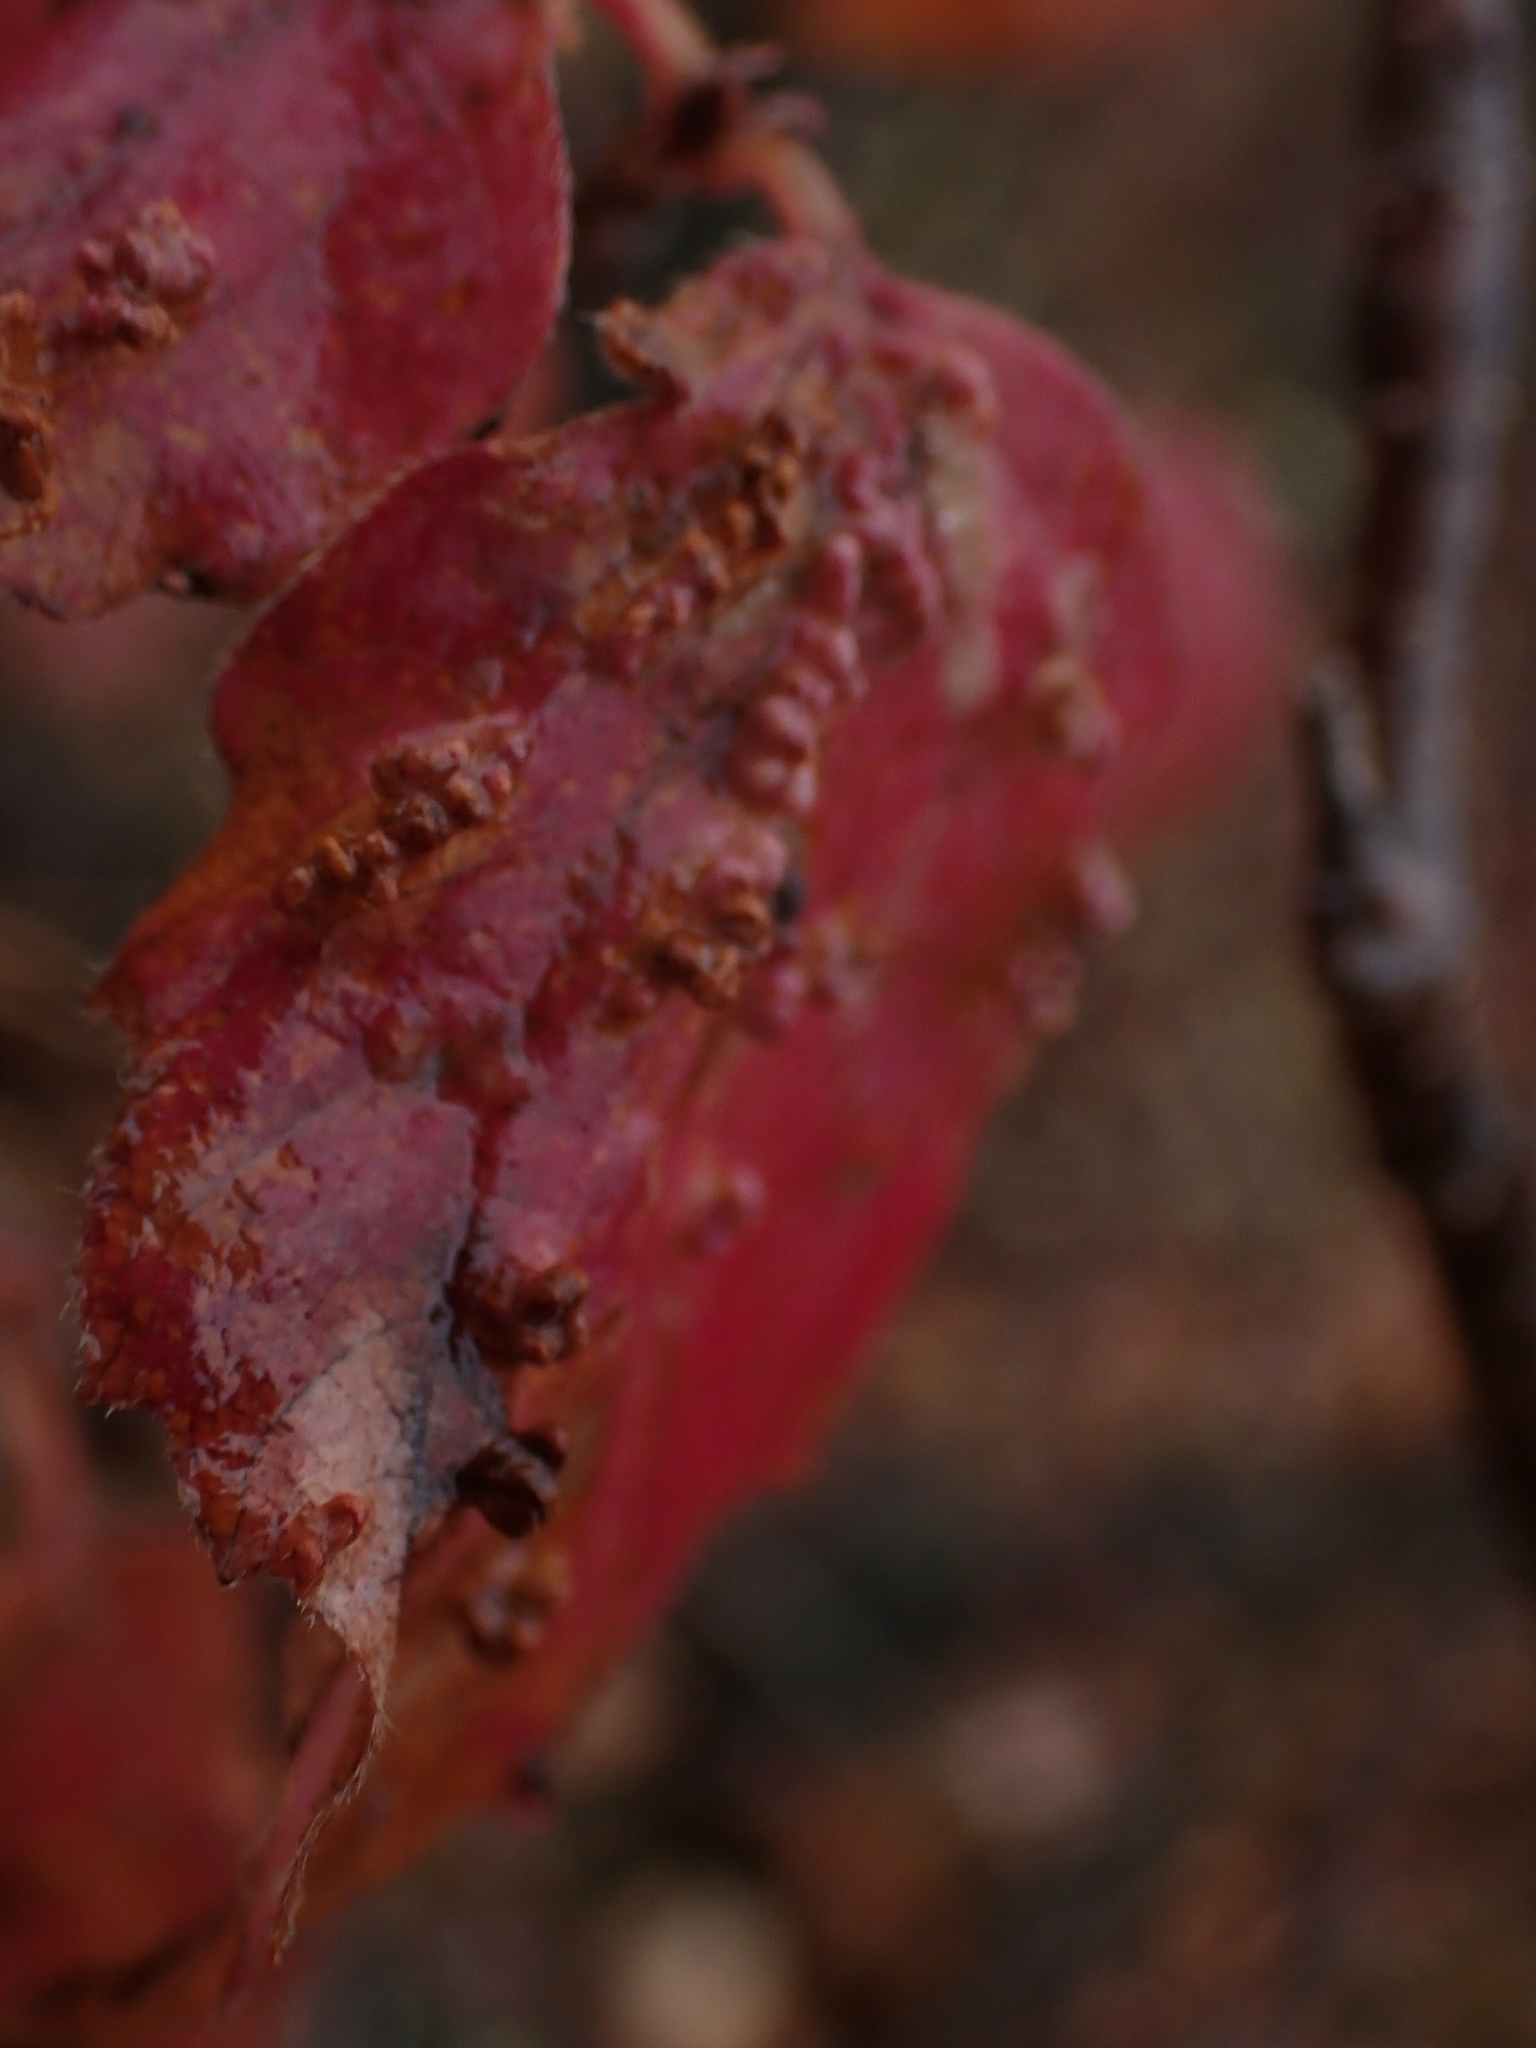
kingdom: Animalia
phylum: Arthropoda
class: Arachnida
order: Trombidiformes
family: Eriophyidae
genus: Eriophyes
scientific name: Eriophyes
